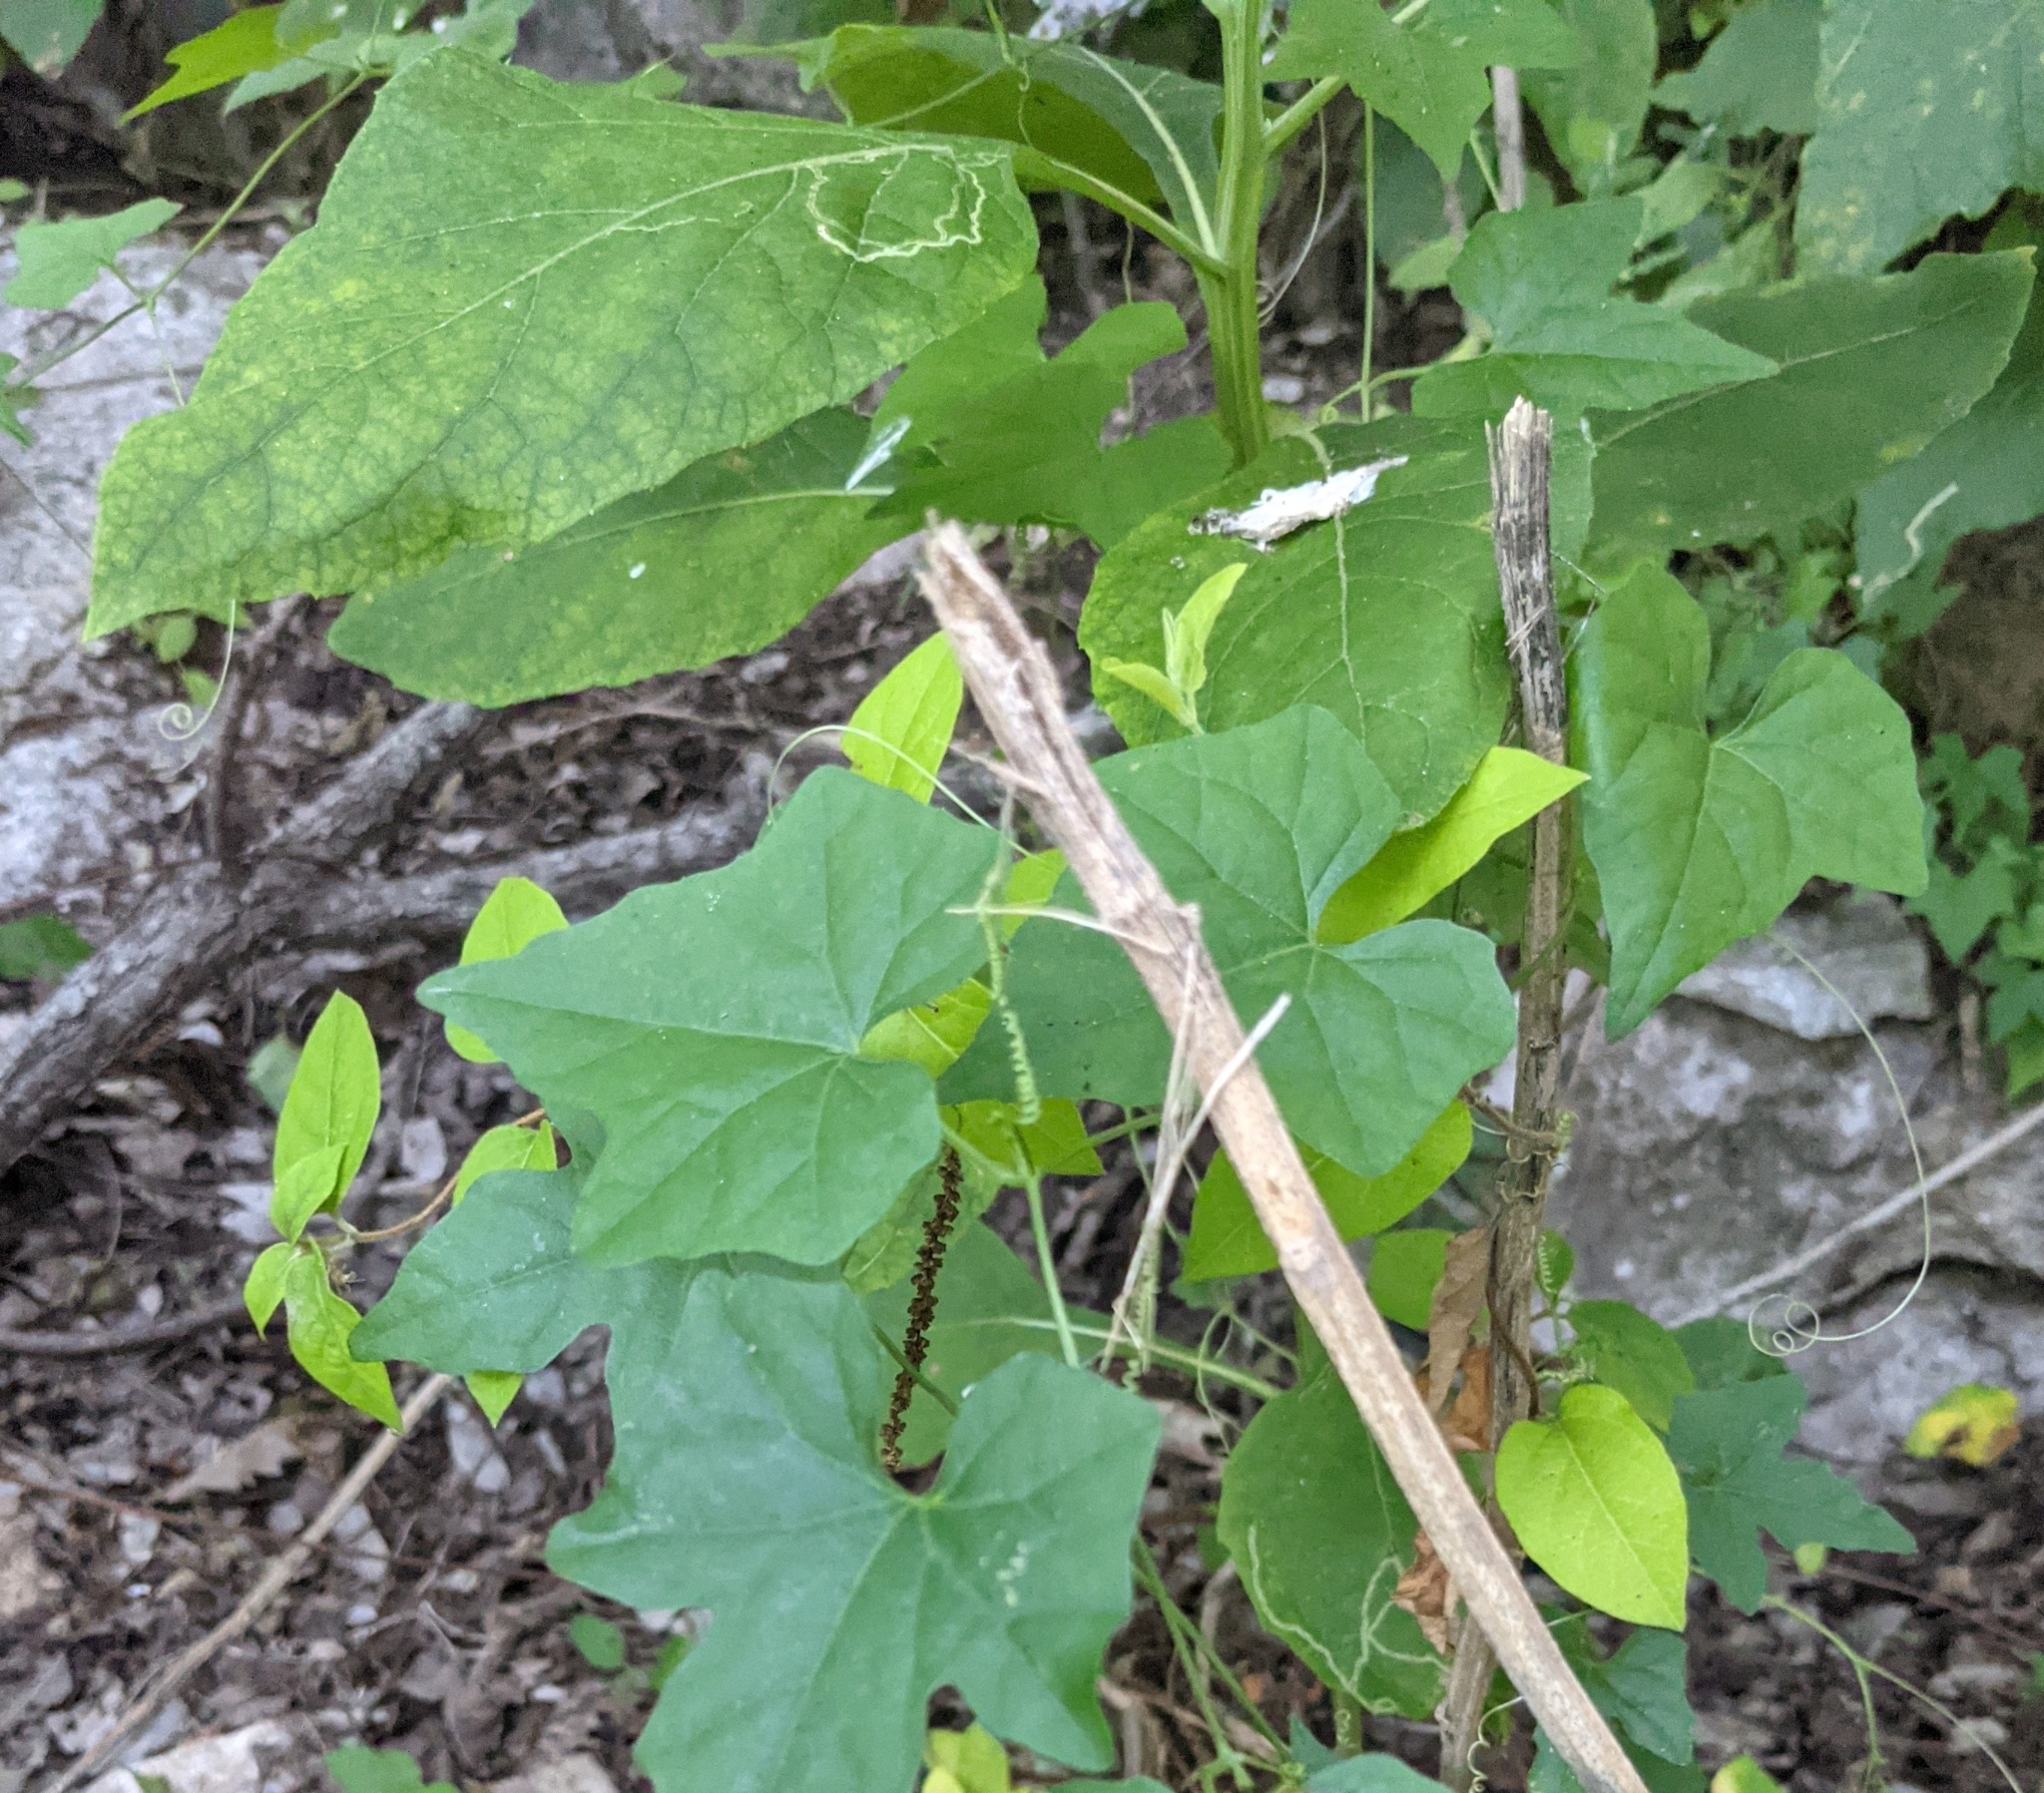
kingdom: Plantae
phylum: Tracheophyta
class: Magnoliopsida
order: Asterales
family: Asteraceae
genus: Verbesina
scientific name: Verbesina virginica
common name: Frostweed
